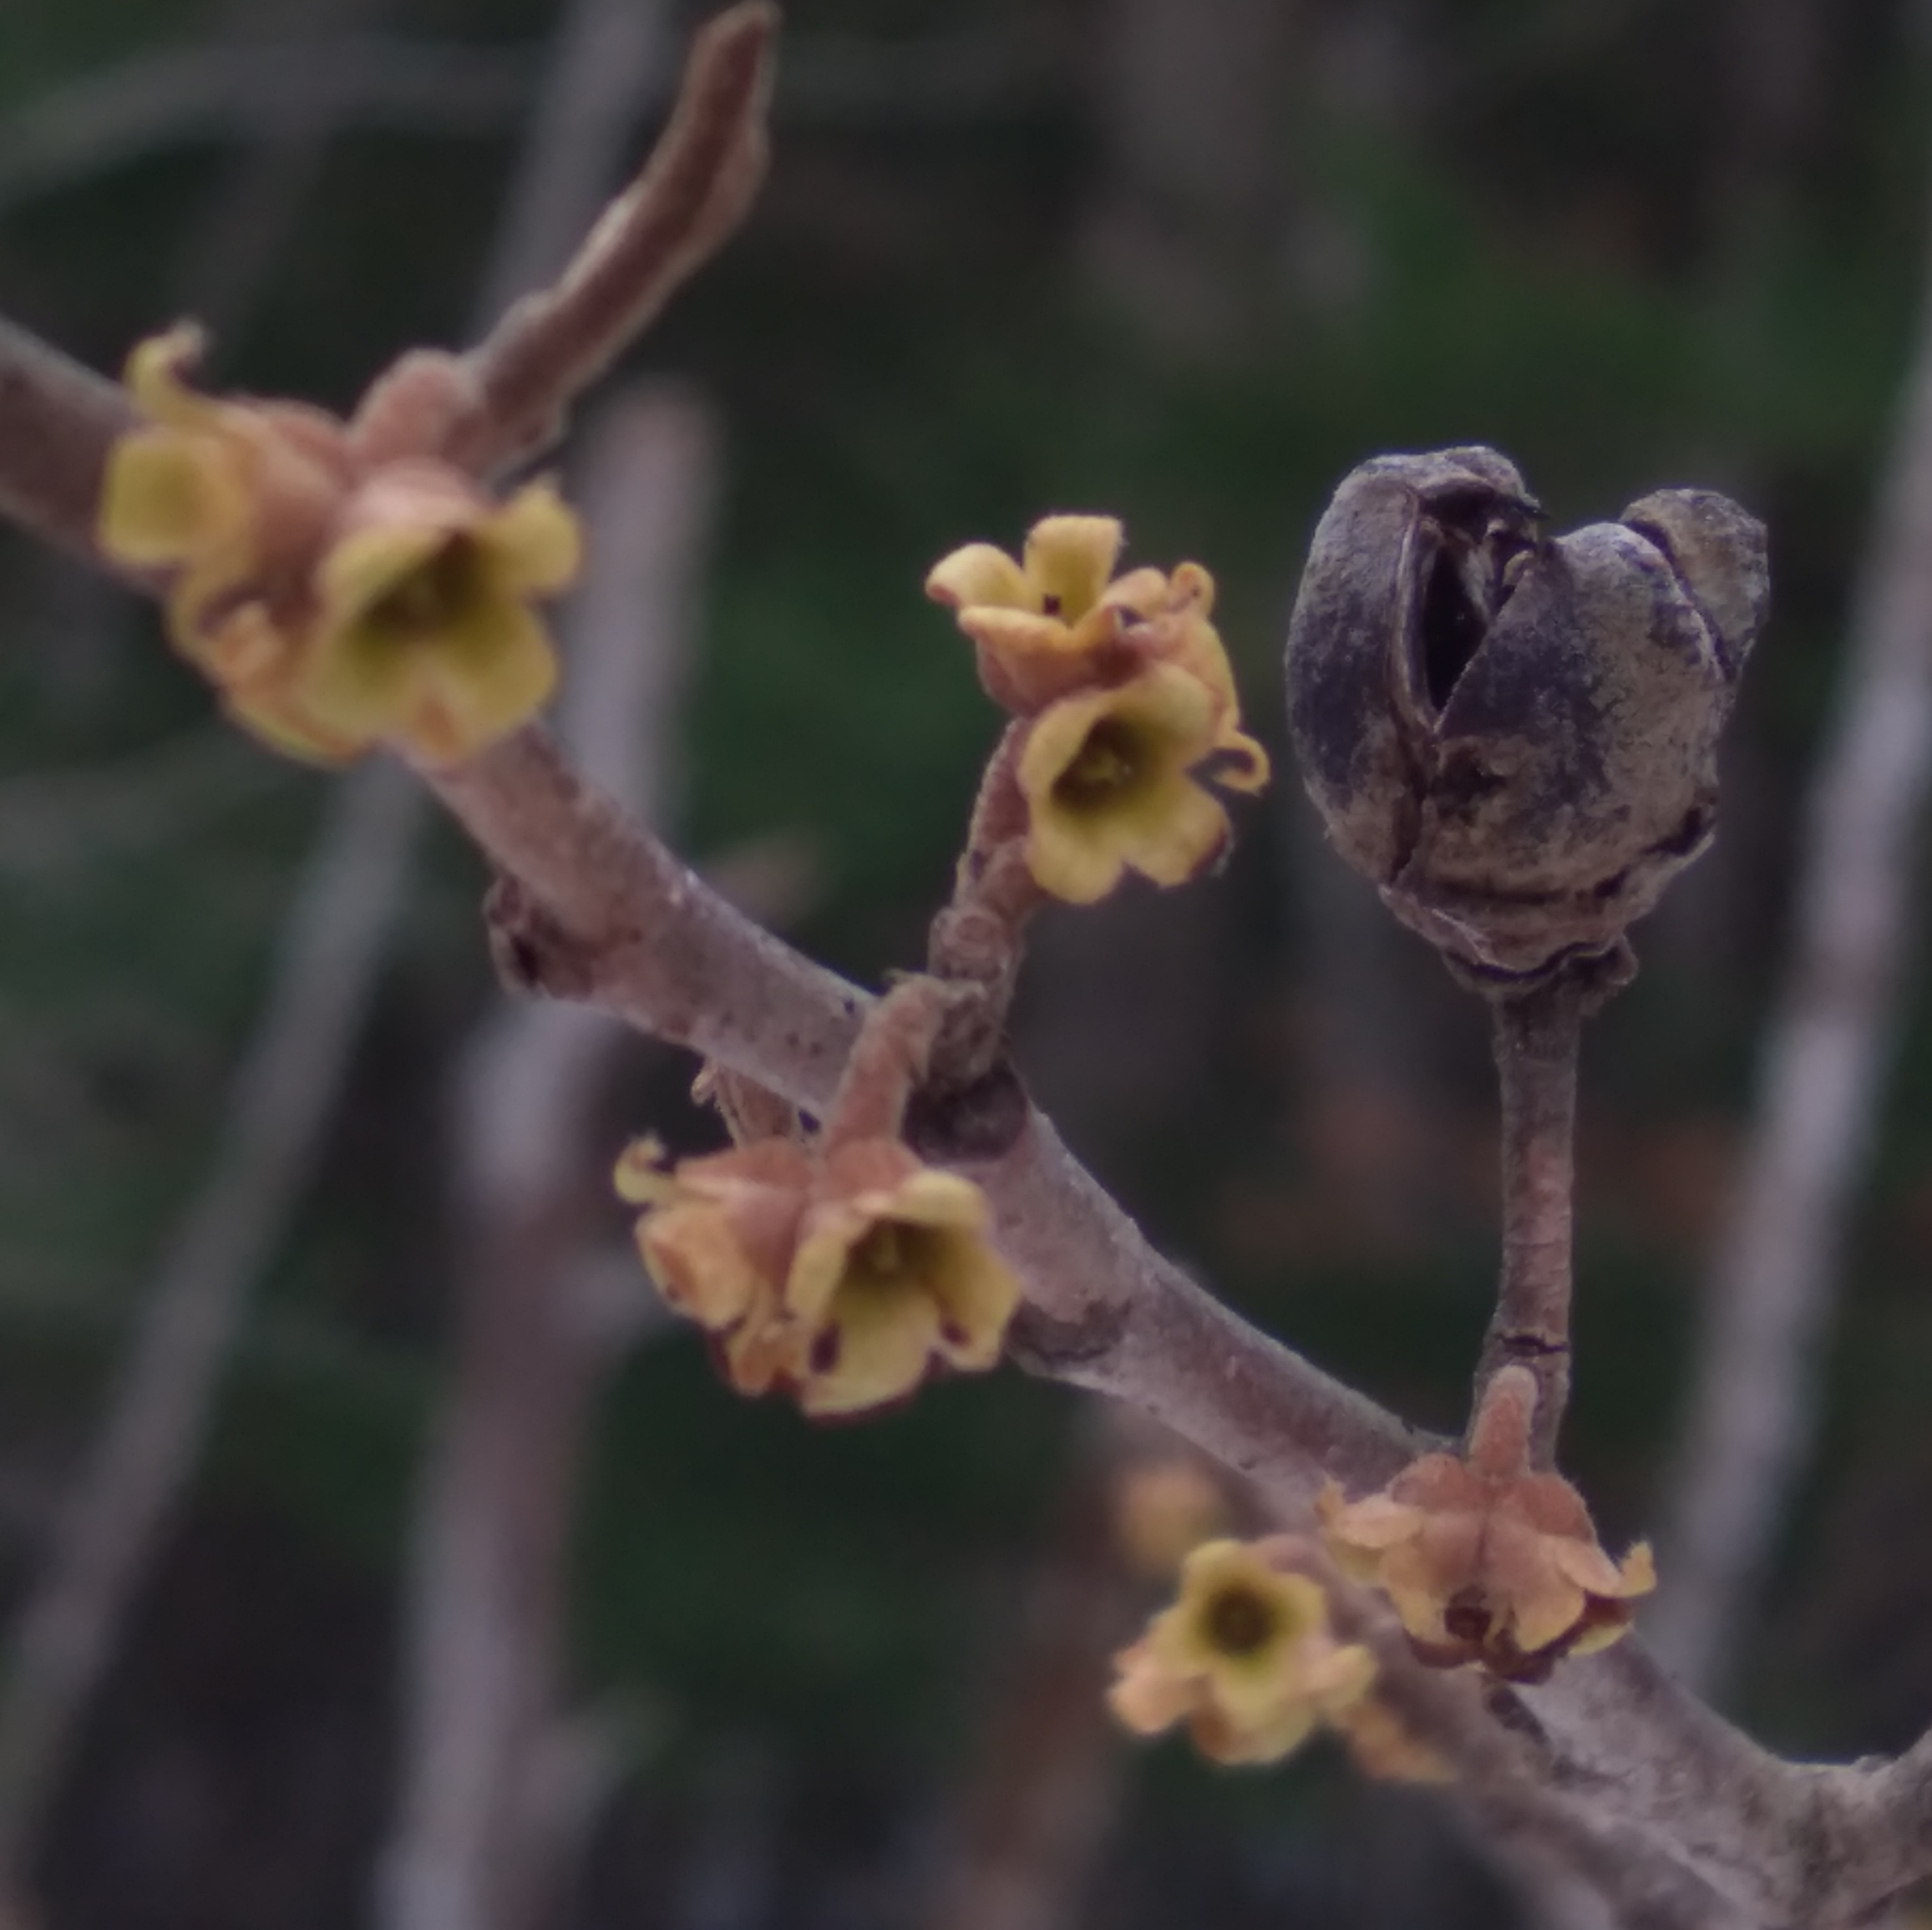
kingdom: Plantae
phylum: Tracheophyta
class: Magnoliopsida
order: Saxifragales
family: Hamamelidaceae
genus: Hamamelis
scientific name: Hamamelis virginiana
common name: Witch-hazel
